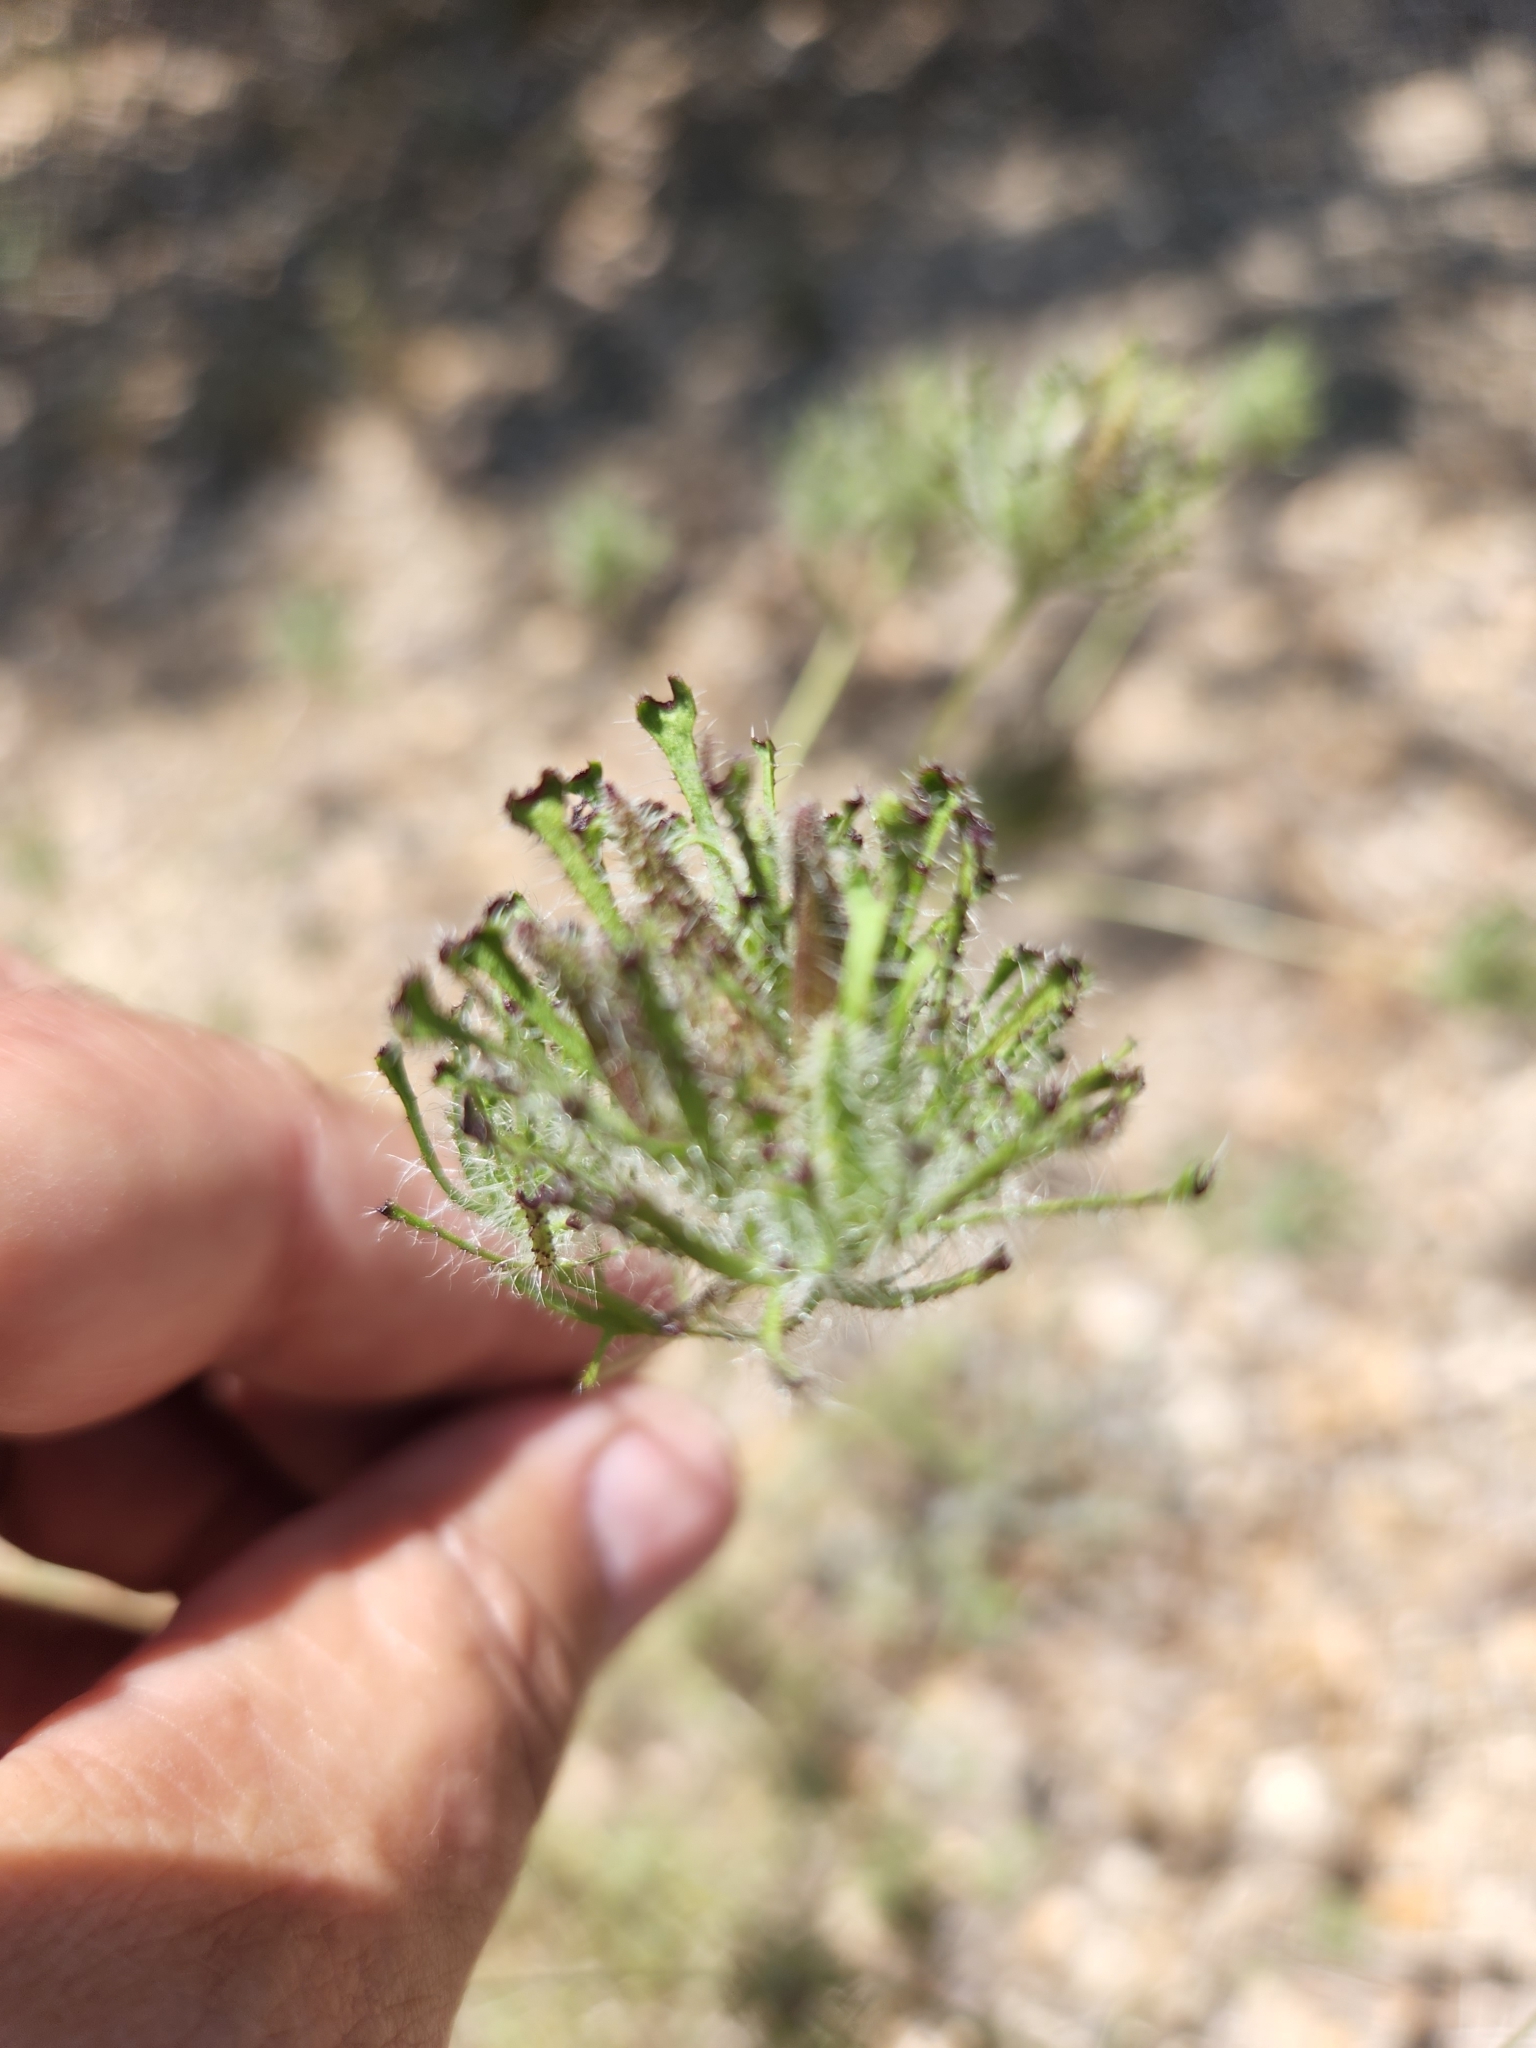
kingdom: Plantae
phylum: Tracheophyta
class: Magnoliopsida
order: Lamiales
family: Orobanchaceae
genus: Cordylanthus
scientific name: Cordylanthus rigidus
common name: Stiff-branch bird's-beak
